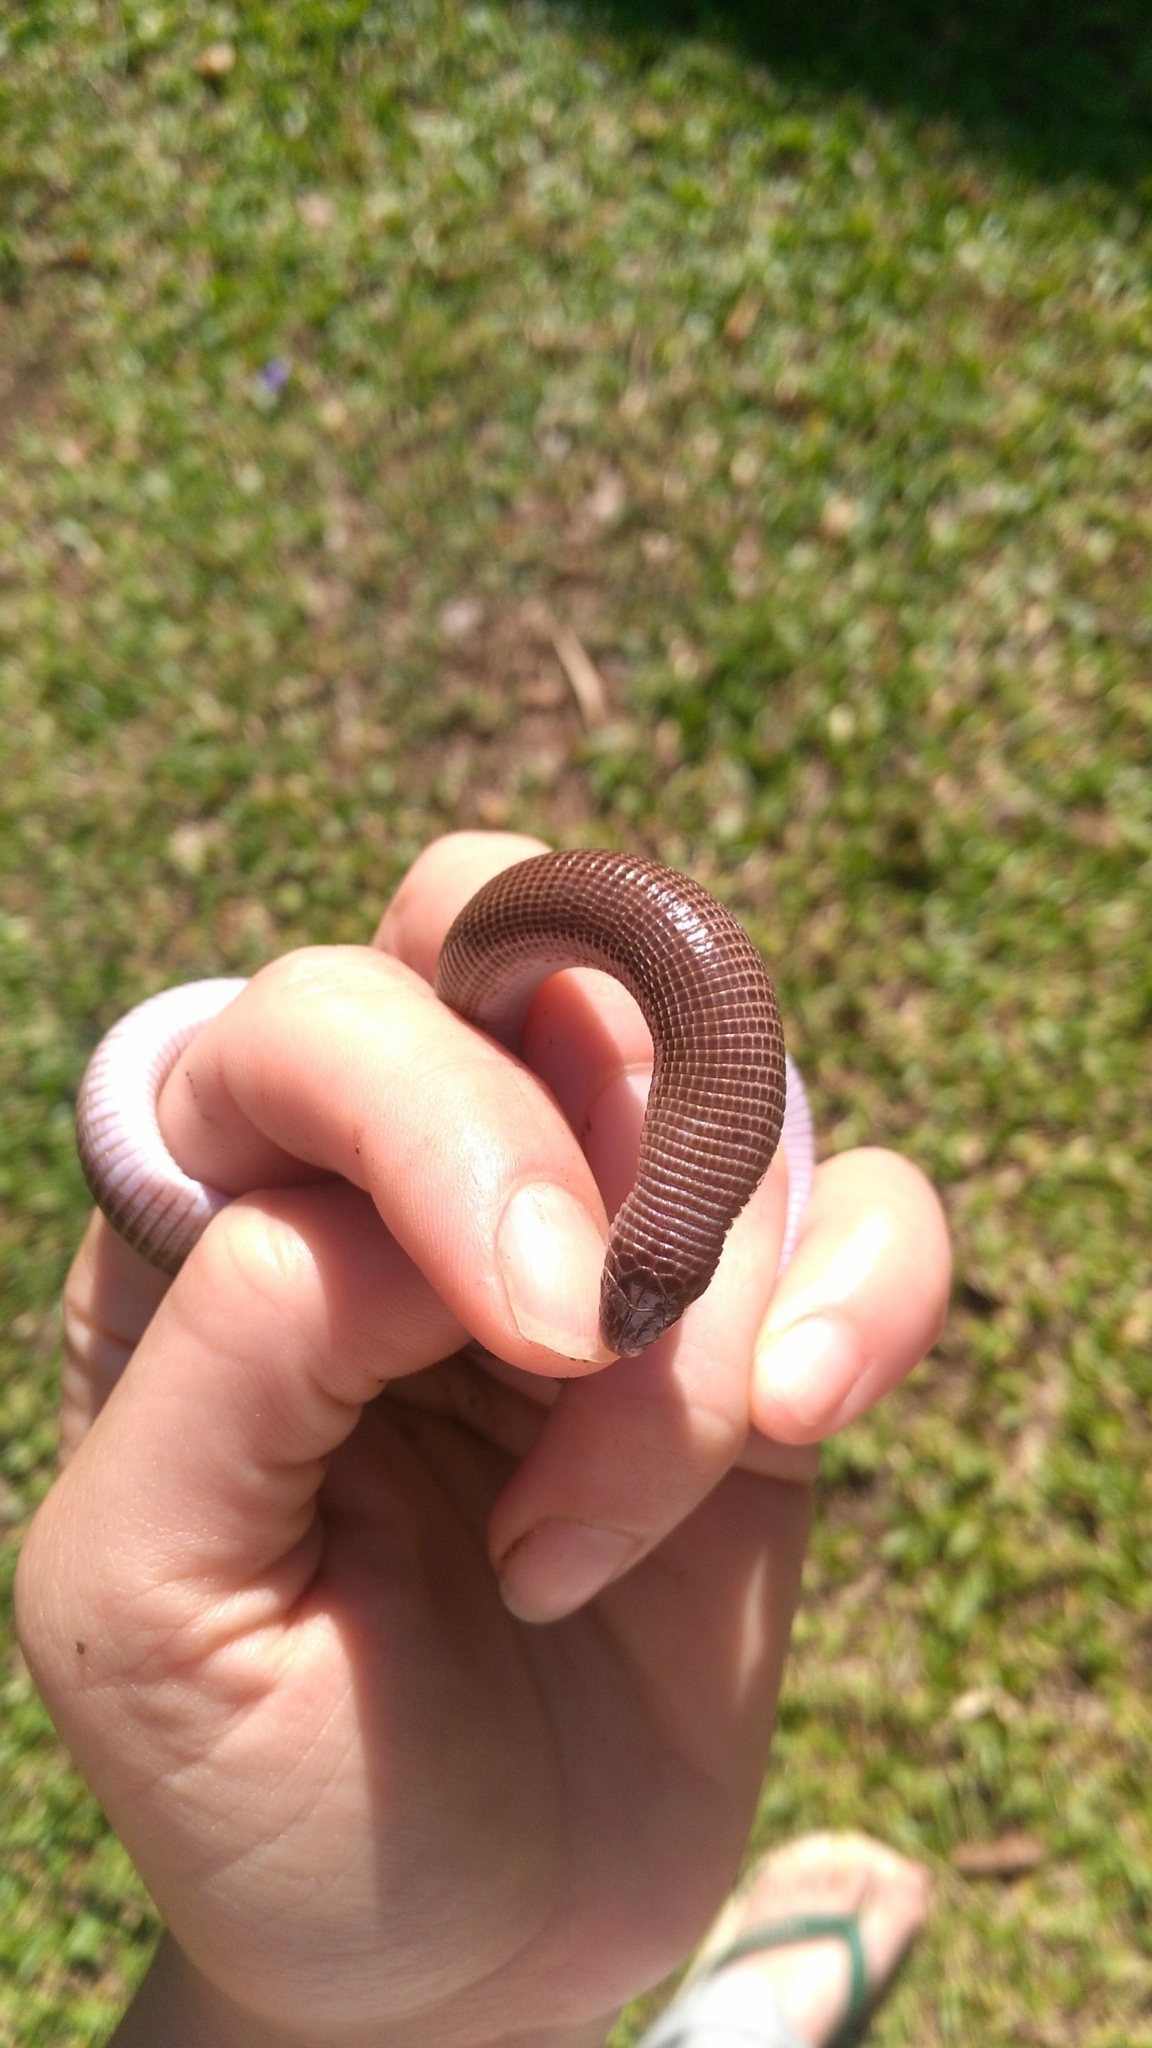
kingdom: Animalia
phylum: Chordata
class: Squamata
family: Amphisbaenidae
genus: Amphisbaena
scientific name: Amphisbaena darwinii
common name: Darwin's ringed worm lizard
